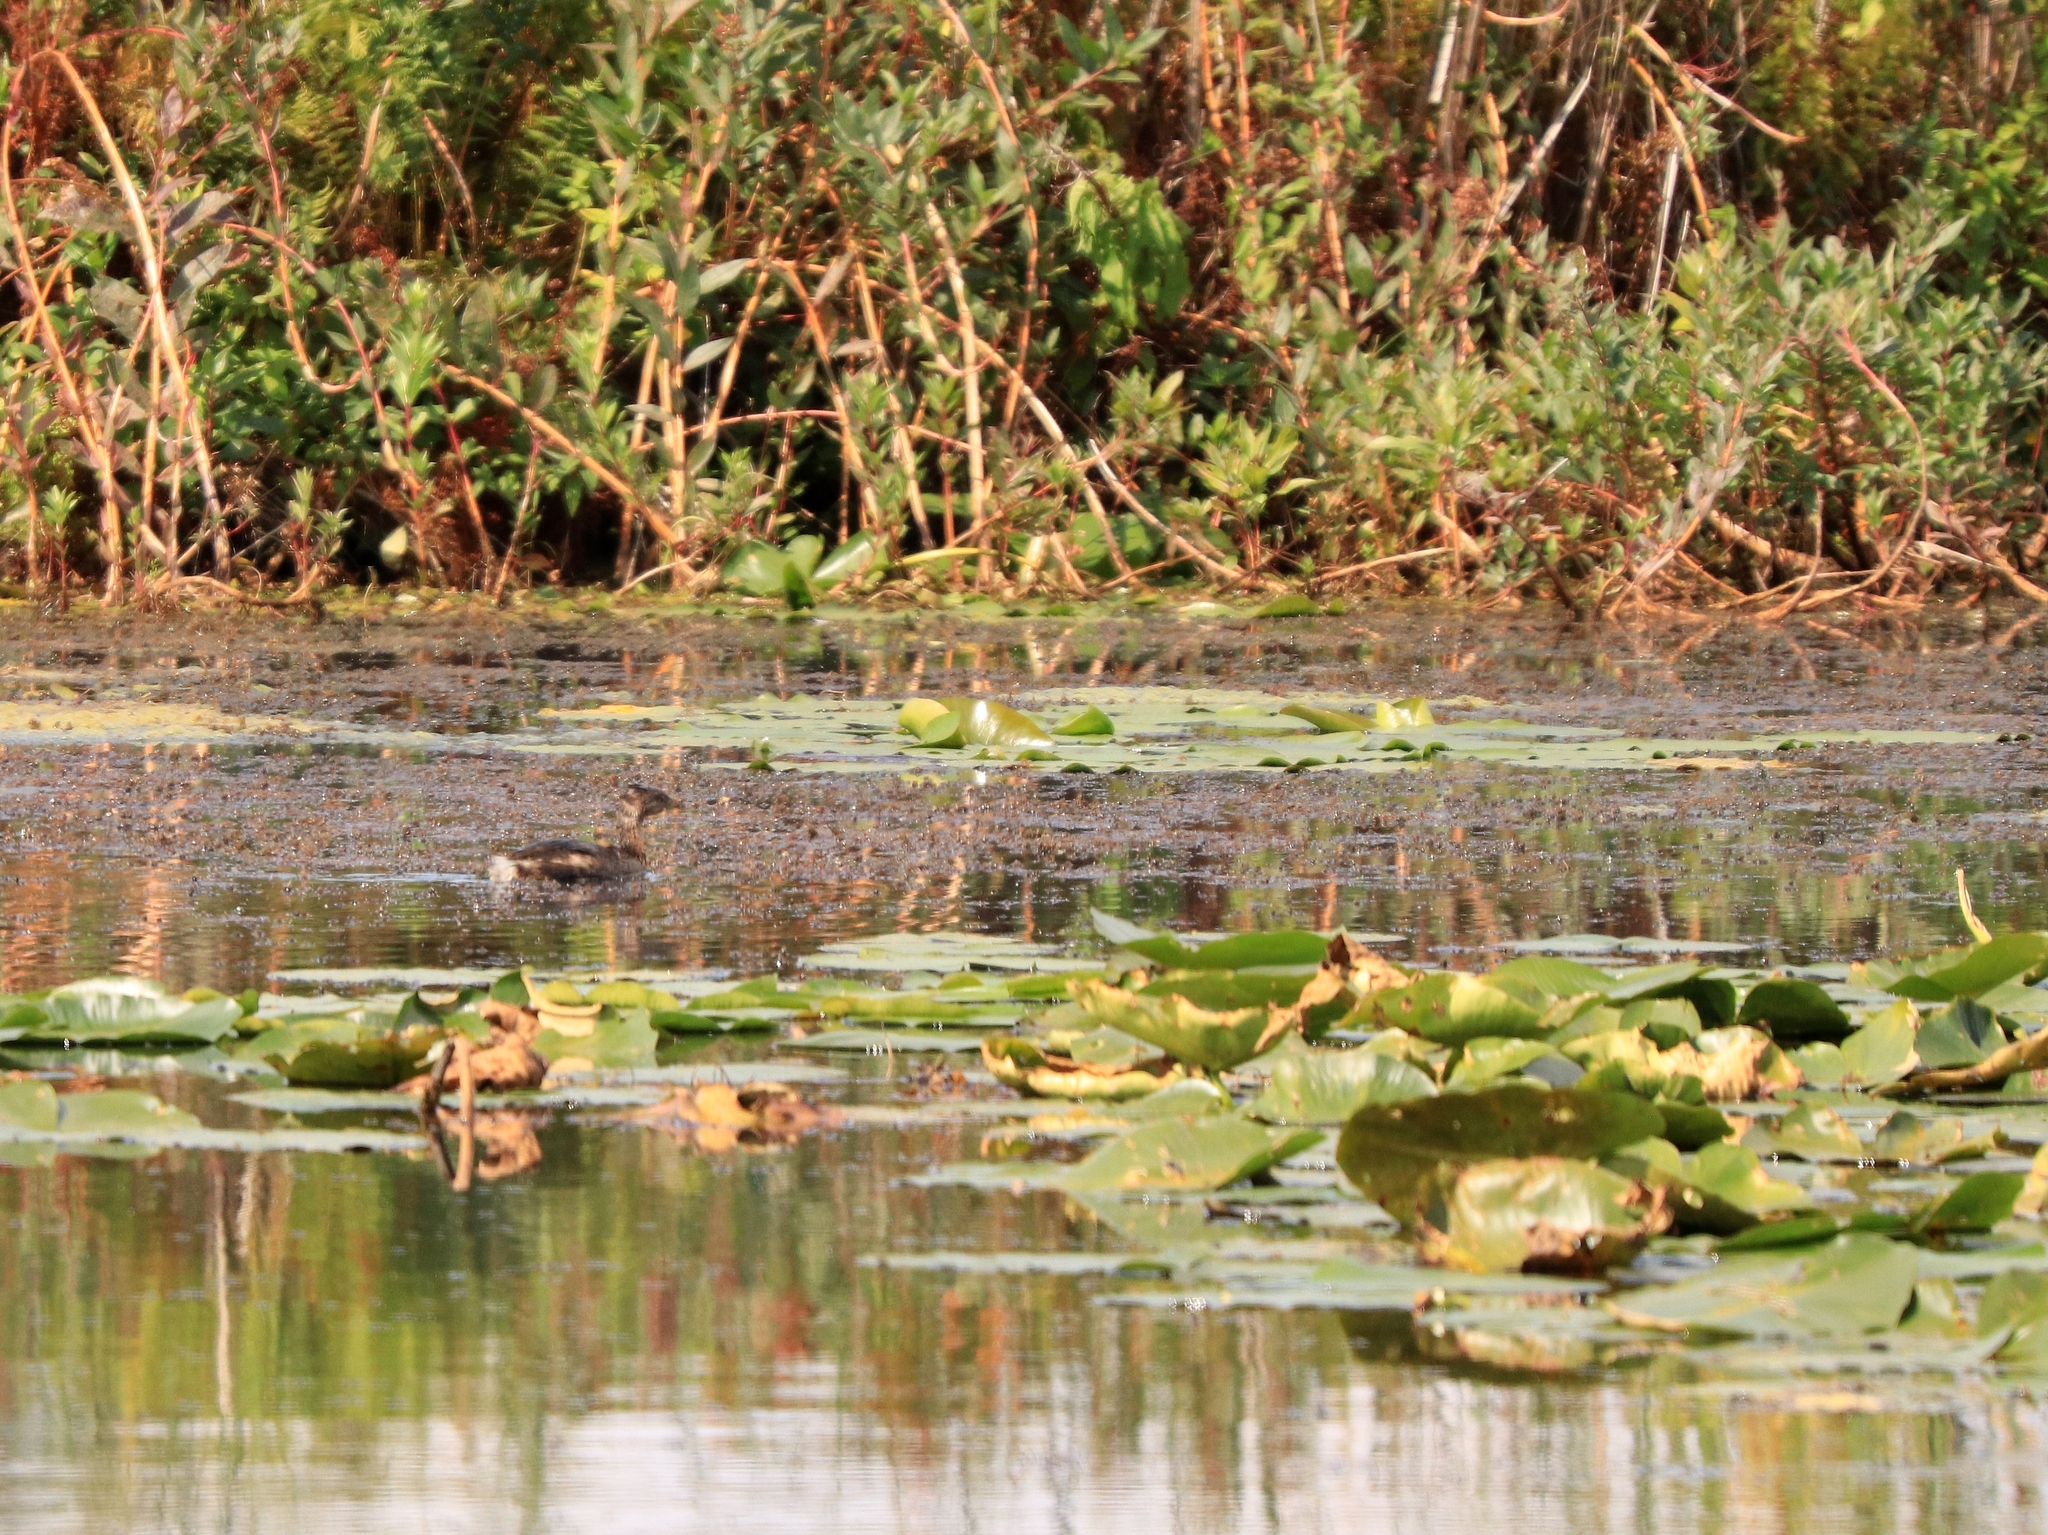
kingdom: Animalia
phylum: Chordata
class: Aves
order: Podicipediformes
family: Podicipedidae
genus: Podilymbus
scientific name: Podilymbus podiceps
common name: Pied-billed grebe
